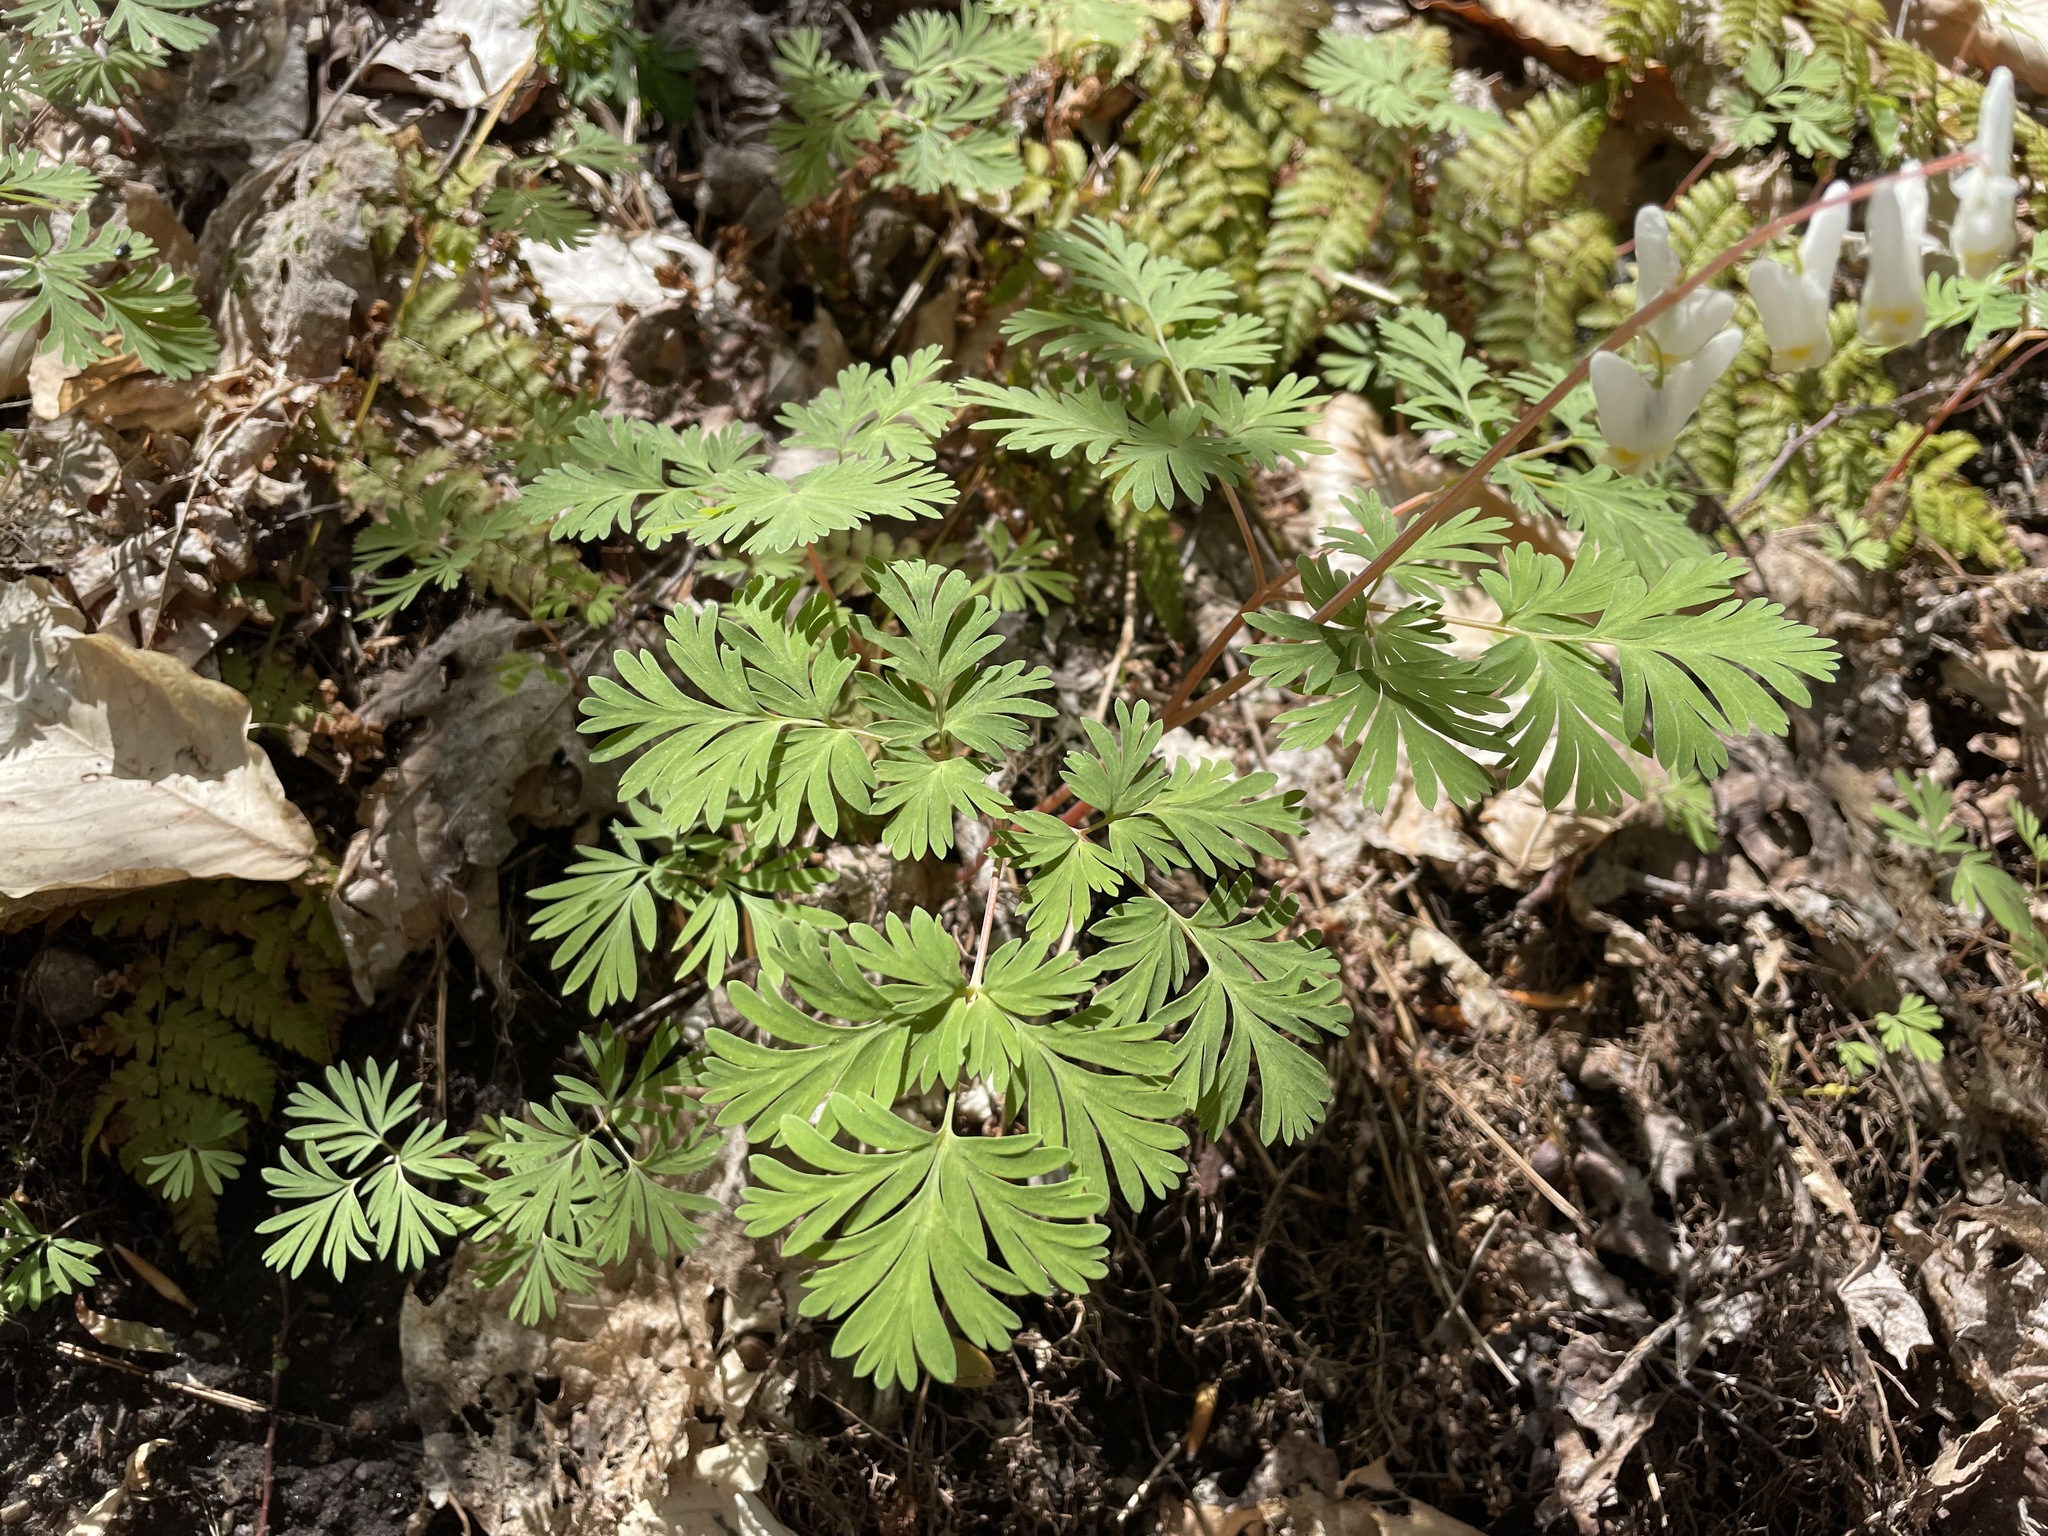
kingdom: Plantae
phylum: Tracheophyta
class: Magnoliopsida
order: Ranunculales
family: Papaveraceae
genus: Dicentra
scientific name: Dicentra cucullaria
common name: Dutchman's breeches
